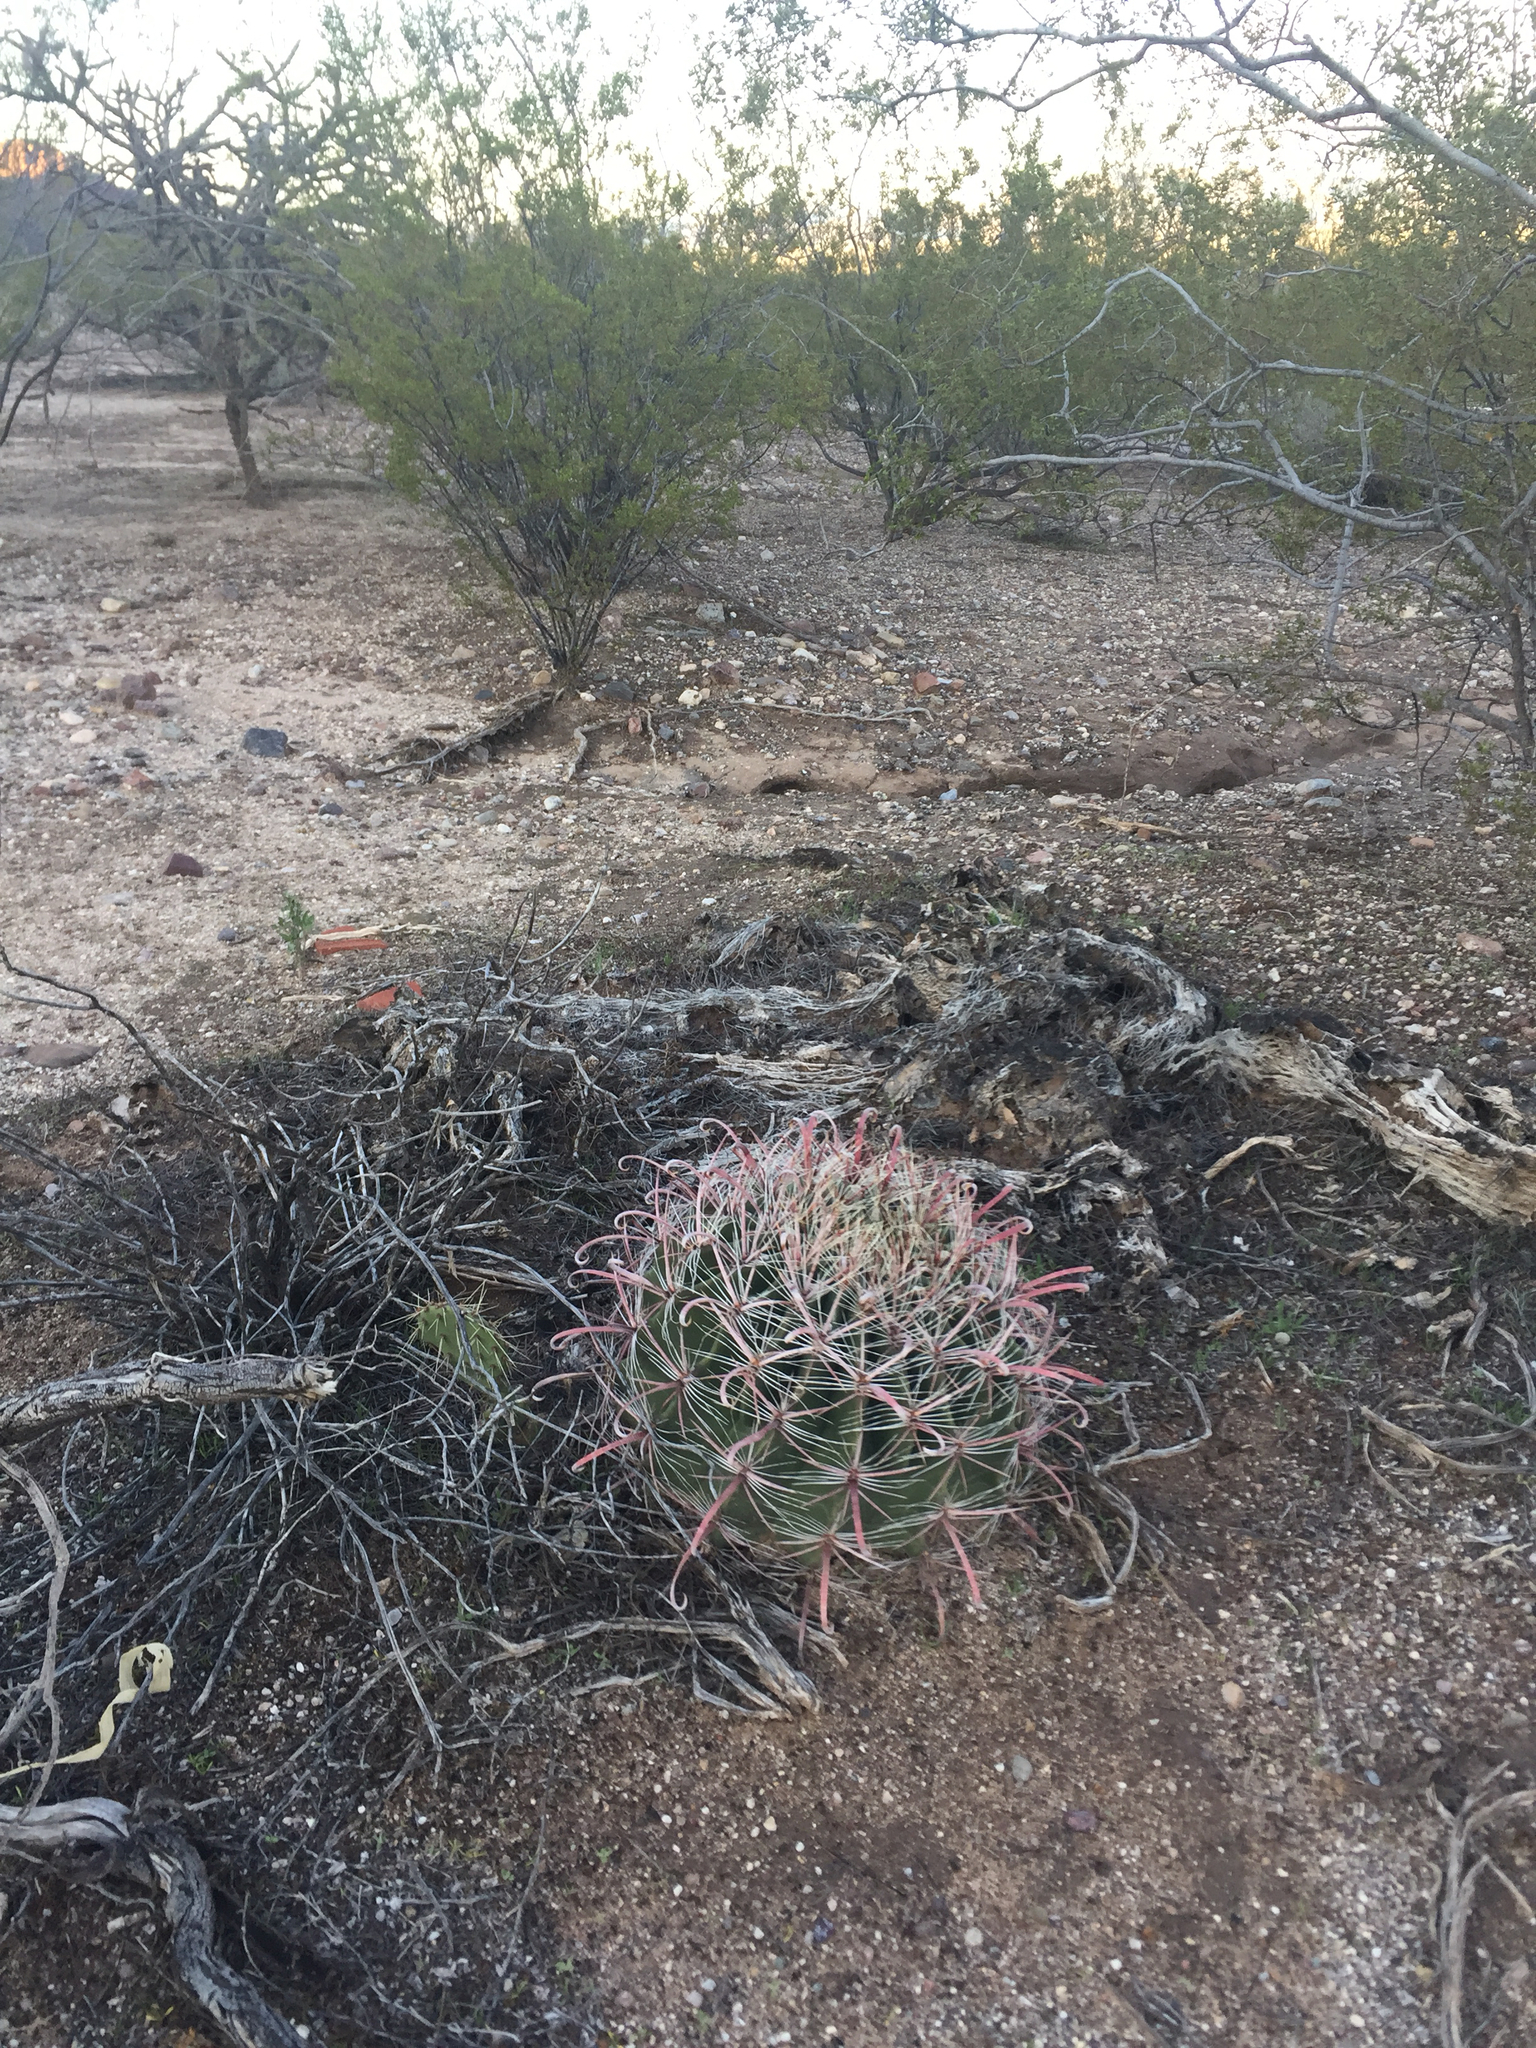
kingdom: Plantae
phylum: Tracheophyta
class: Magnoliopsida
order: Caryophyllales
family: Cactaceae
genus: Ferocactus
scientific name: Ferocactus wislizeni
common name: Candy barrel cactus
